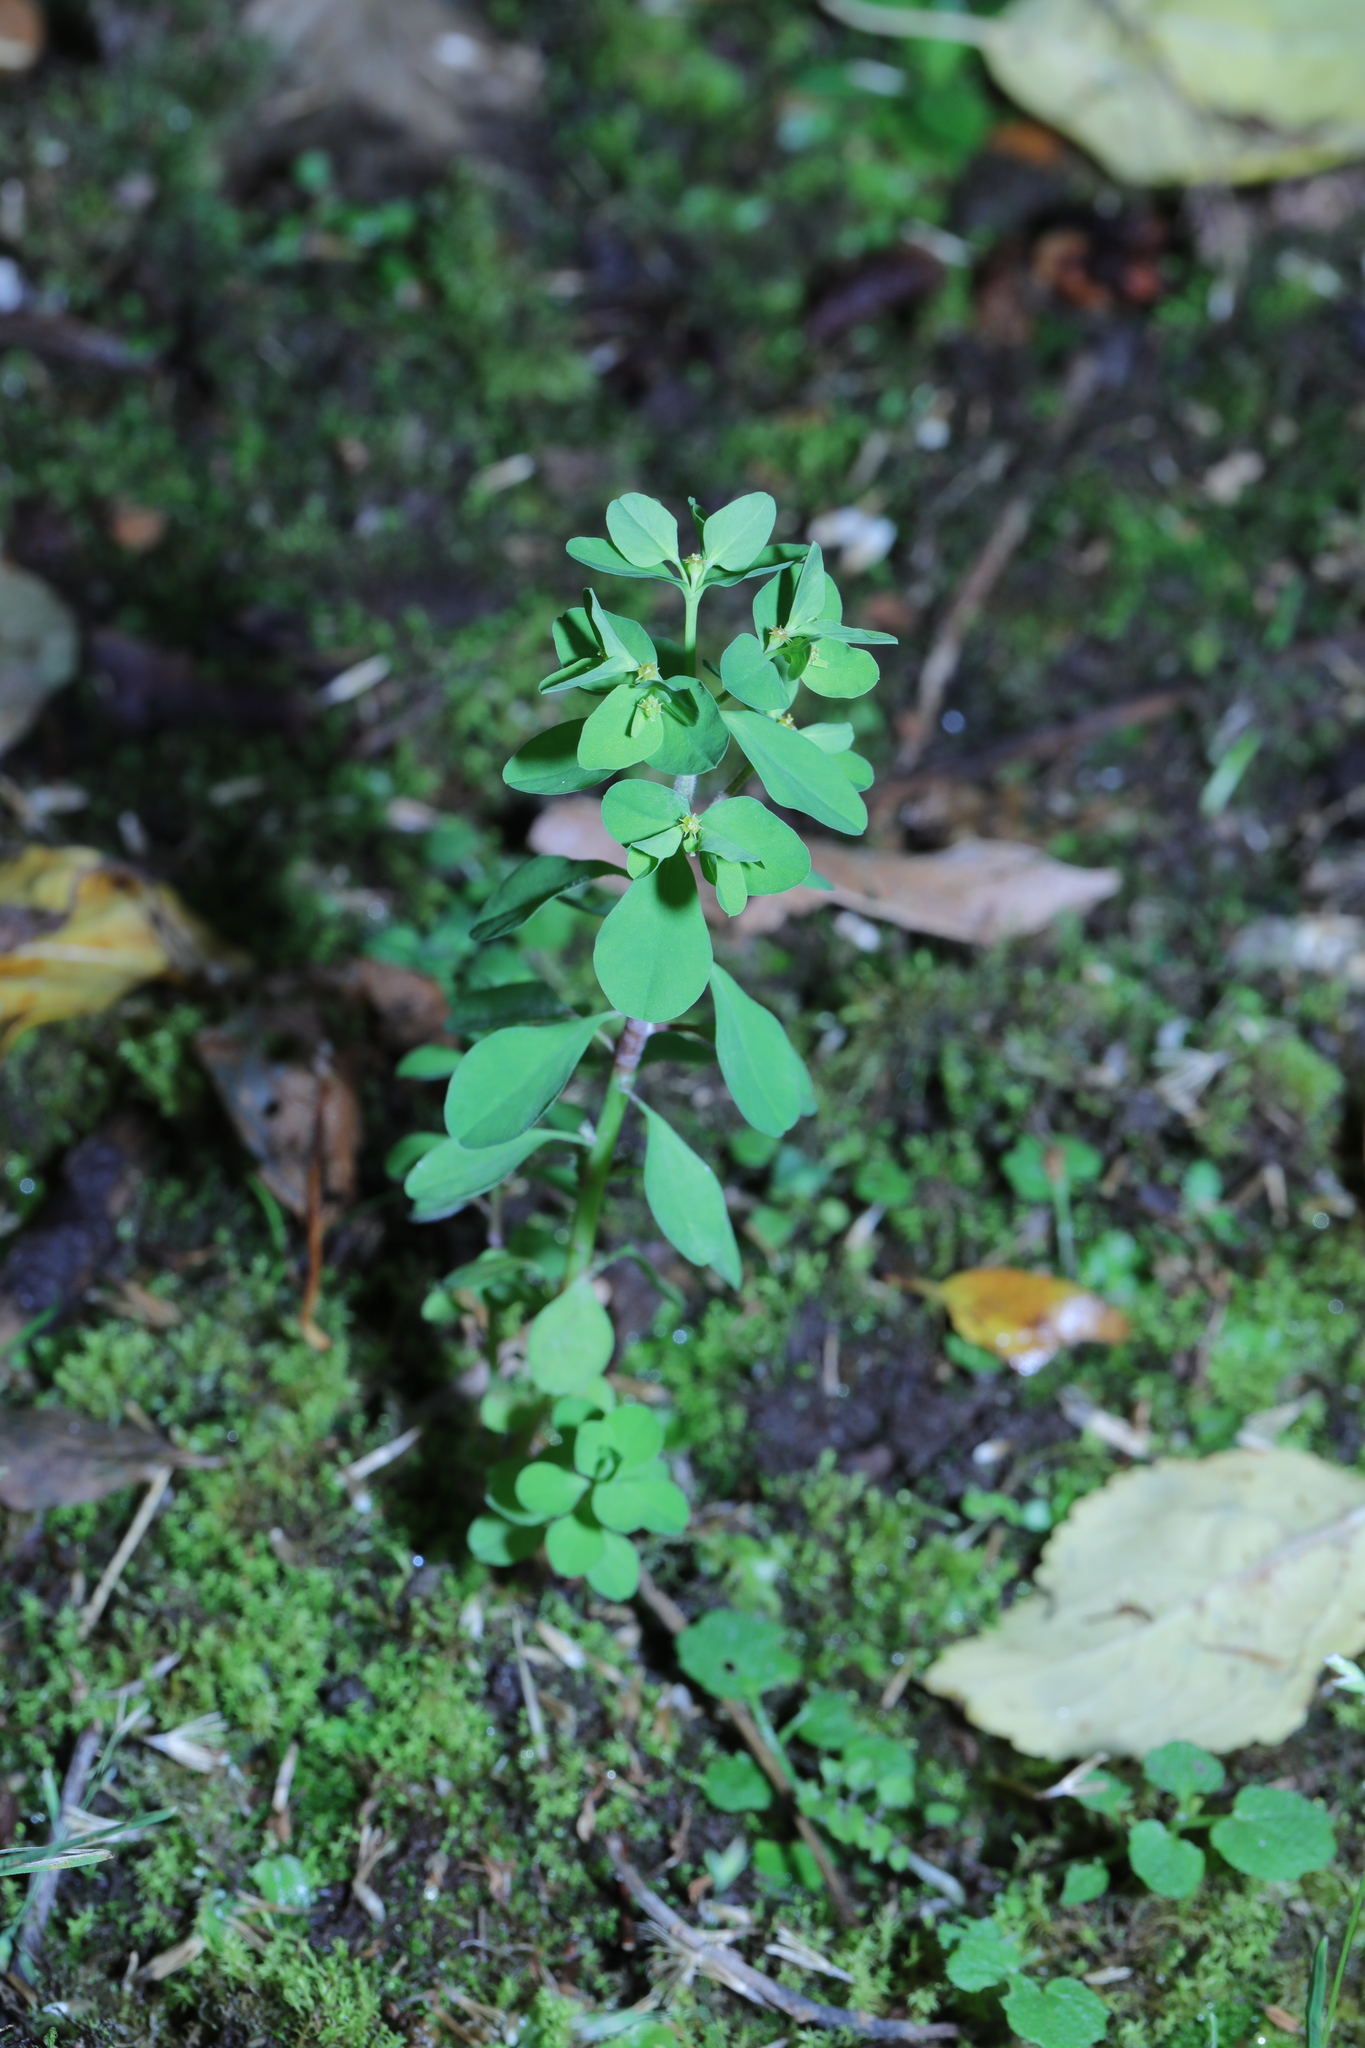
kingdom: Plantae
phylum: Tracheophyta
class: Magnoliopsida
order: Malpighiales
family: Euphorbiaceae
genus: Euphorbia
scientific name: Euphorbia peplus
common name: Petty spurge
